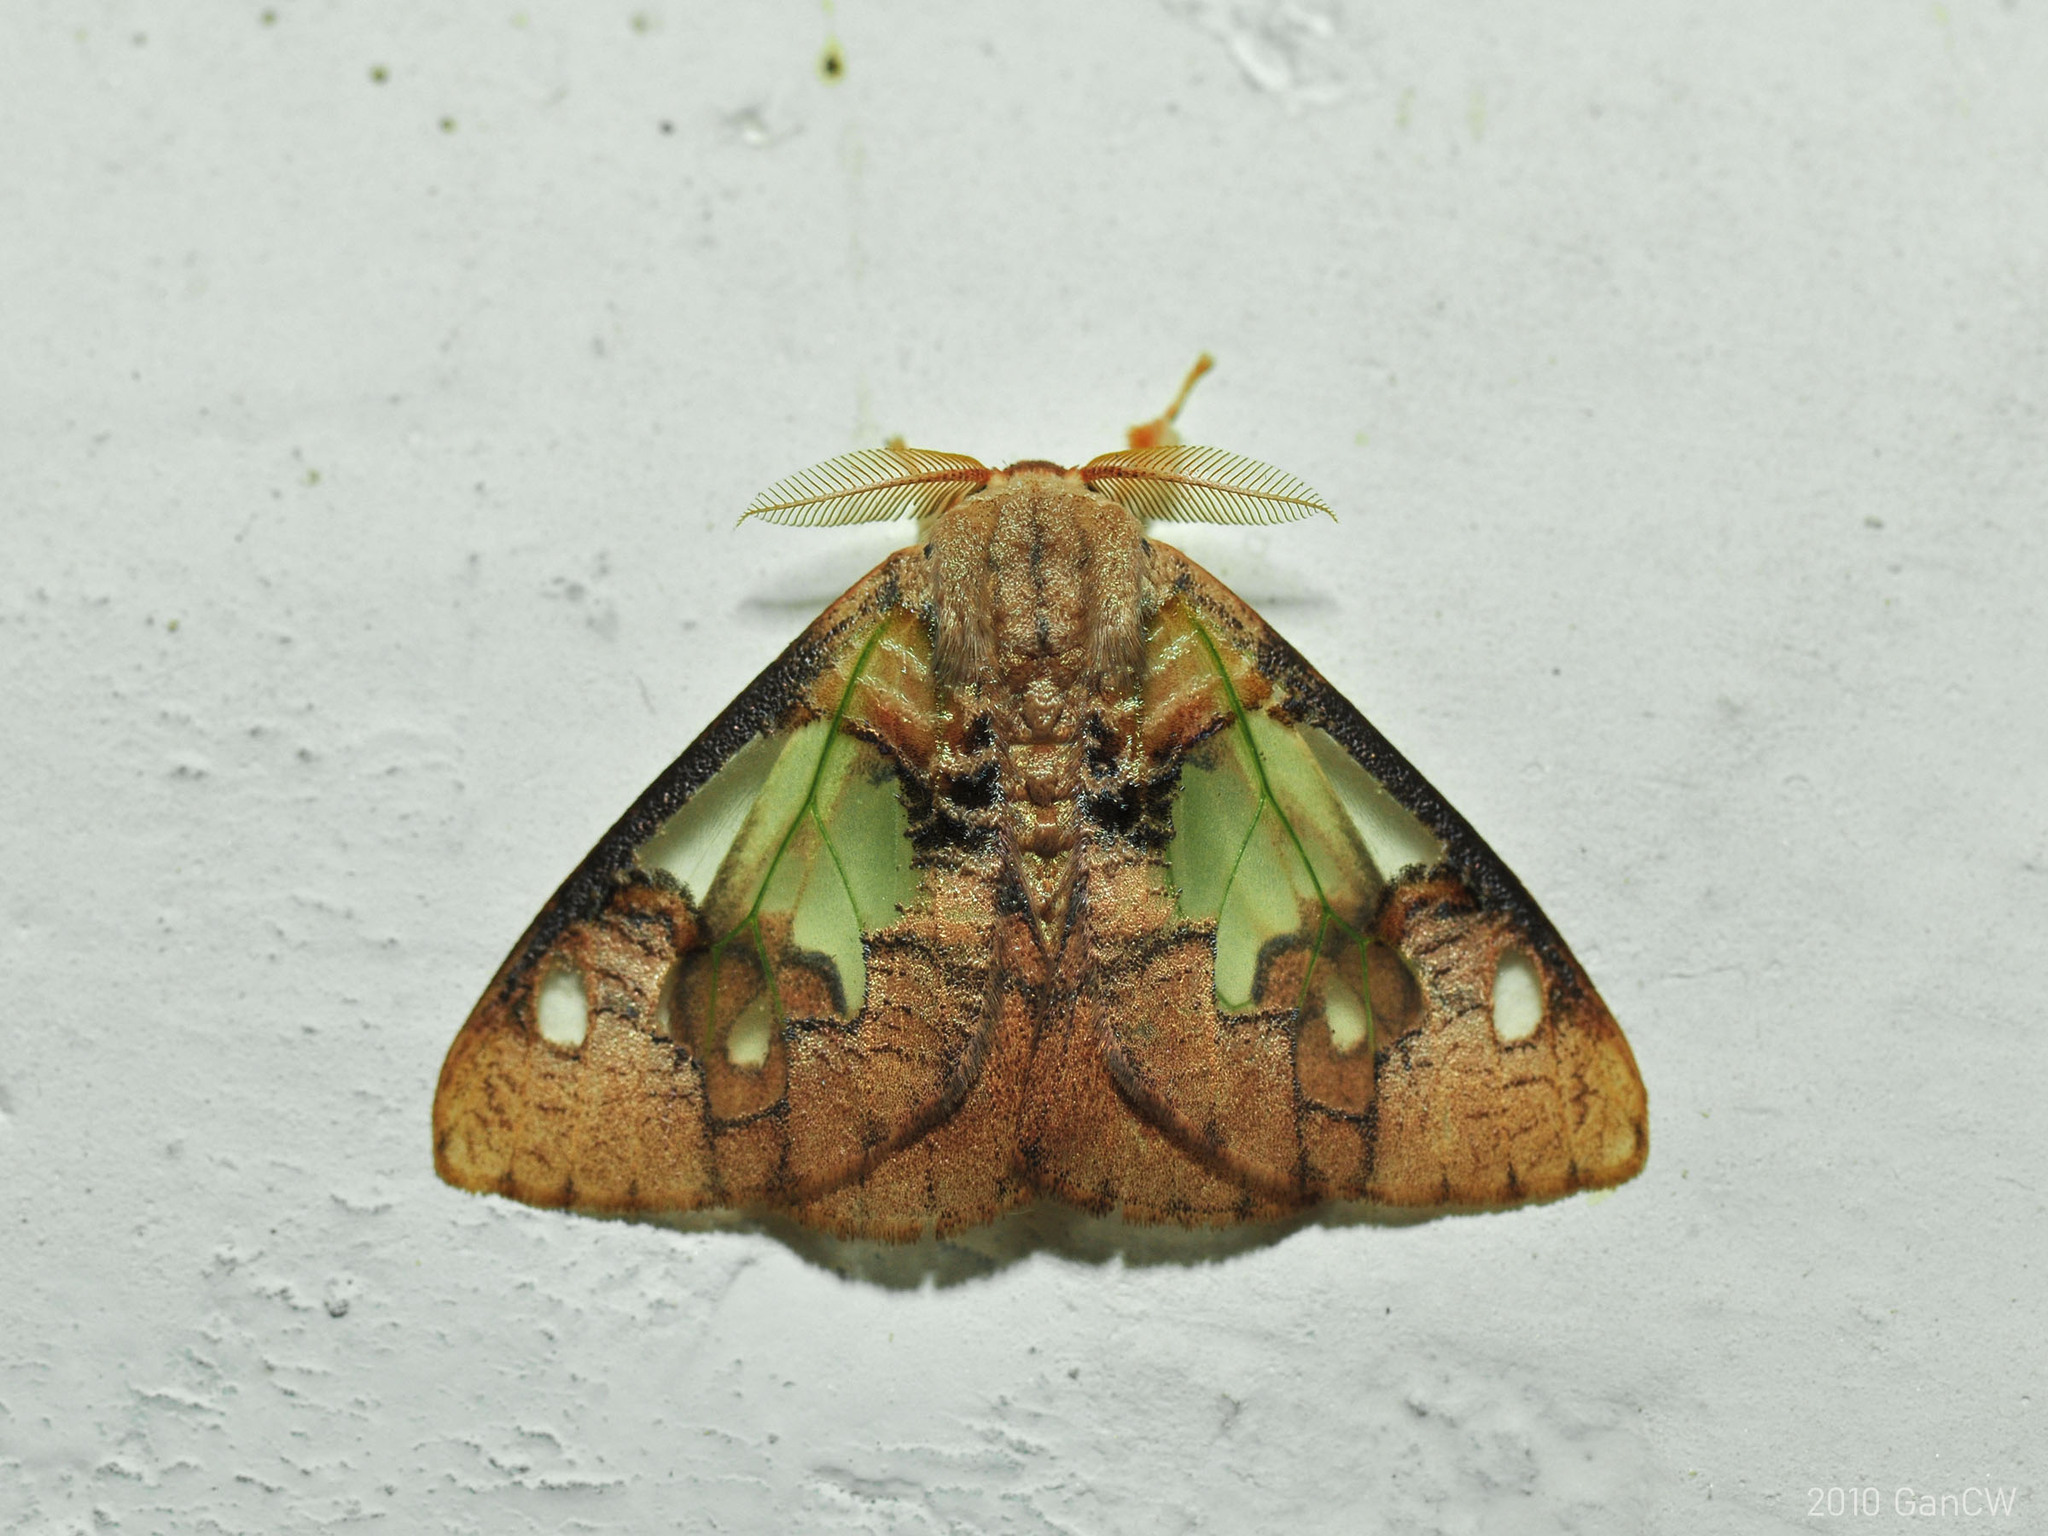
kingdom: Animalia
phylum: Arthropoda
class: Insecta
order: Lepidoptera
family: Erebidae
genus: Carriola
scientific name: Carriola thyridophora
